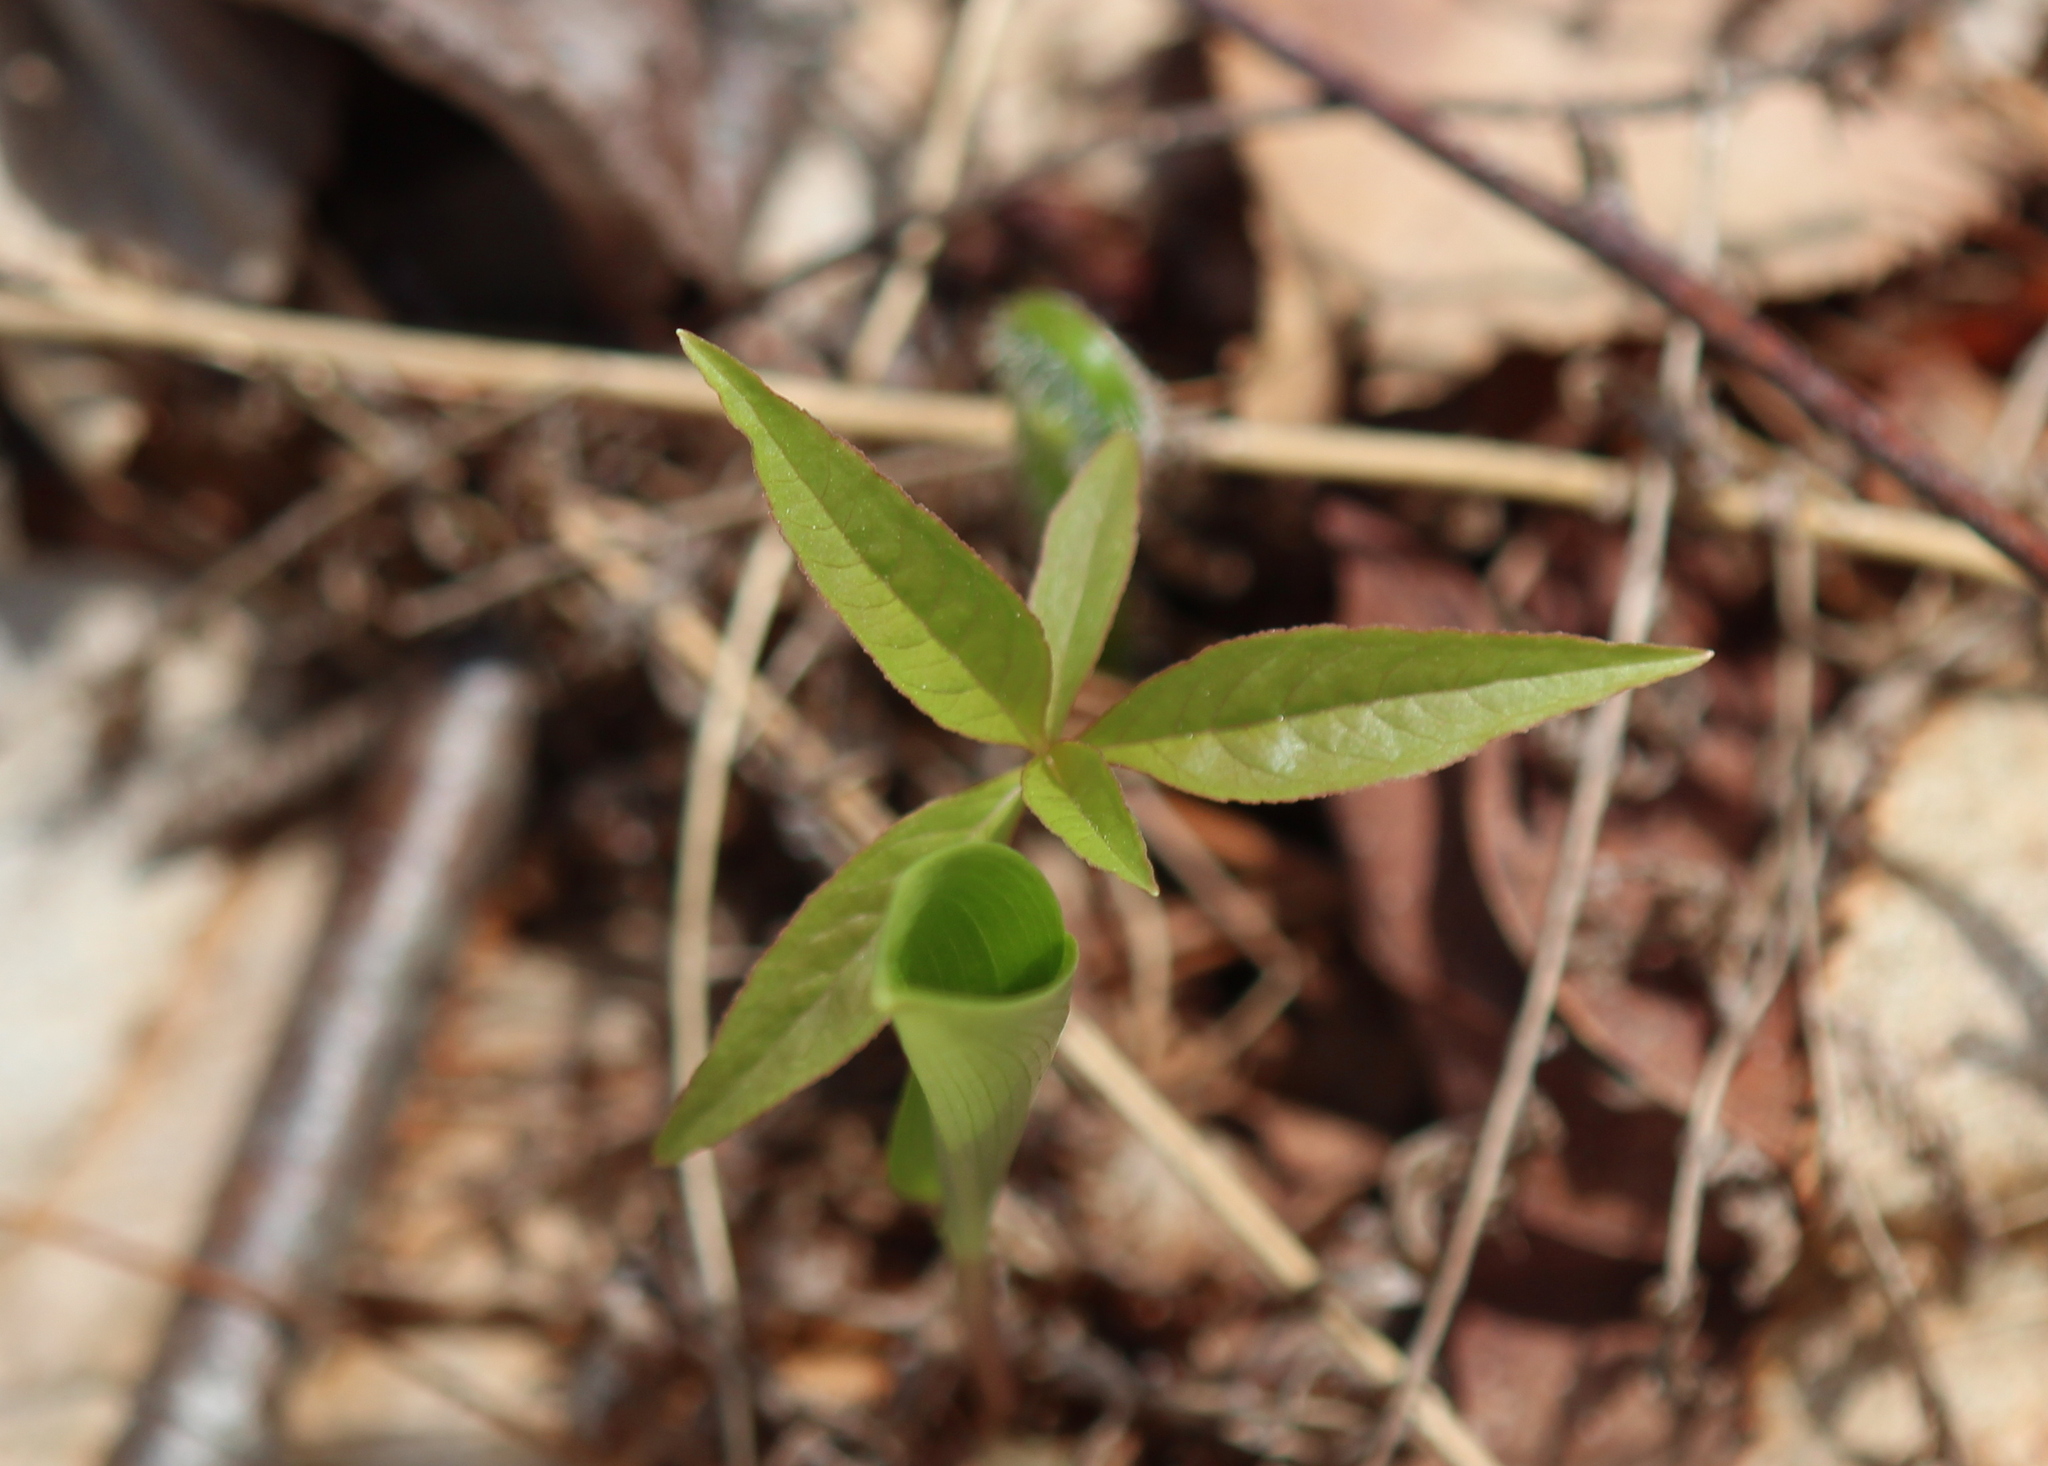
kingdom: Plantae
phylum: Tracheophyta
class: Magnoliopsida
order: Ericales
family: Primulaceae
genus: Lysimachia
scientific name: Lysimachia borealis
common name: American starflower
